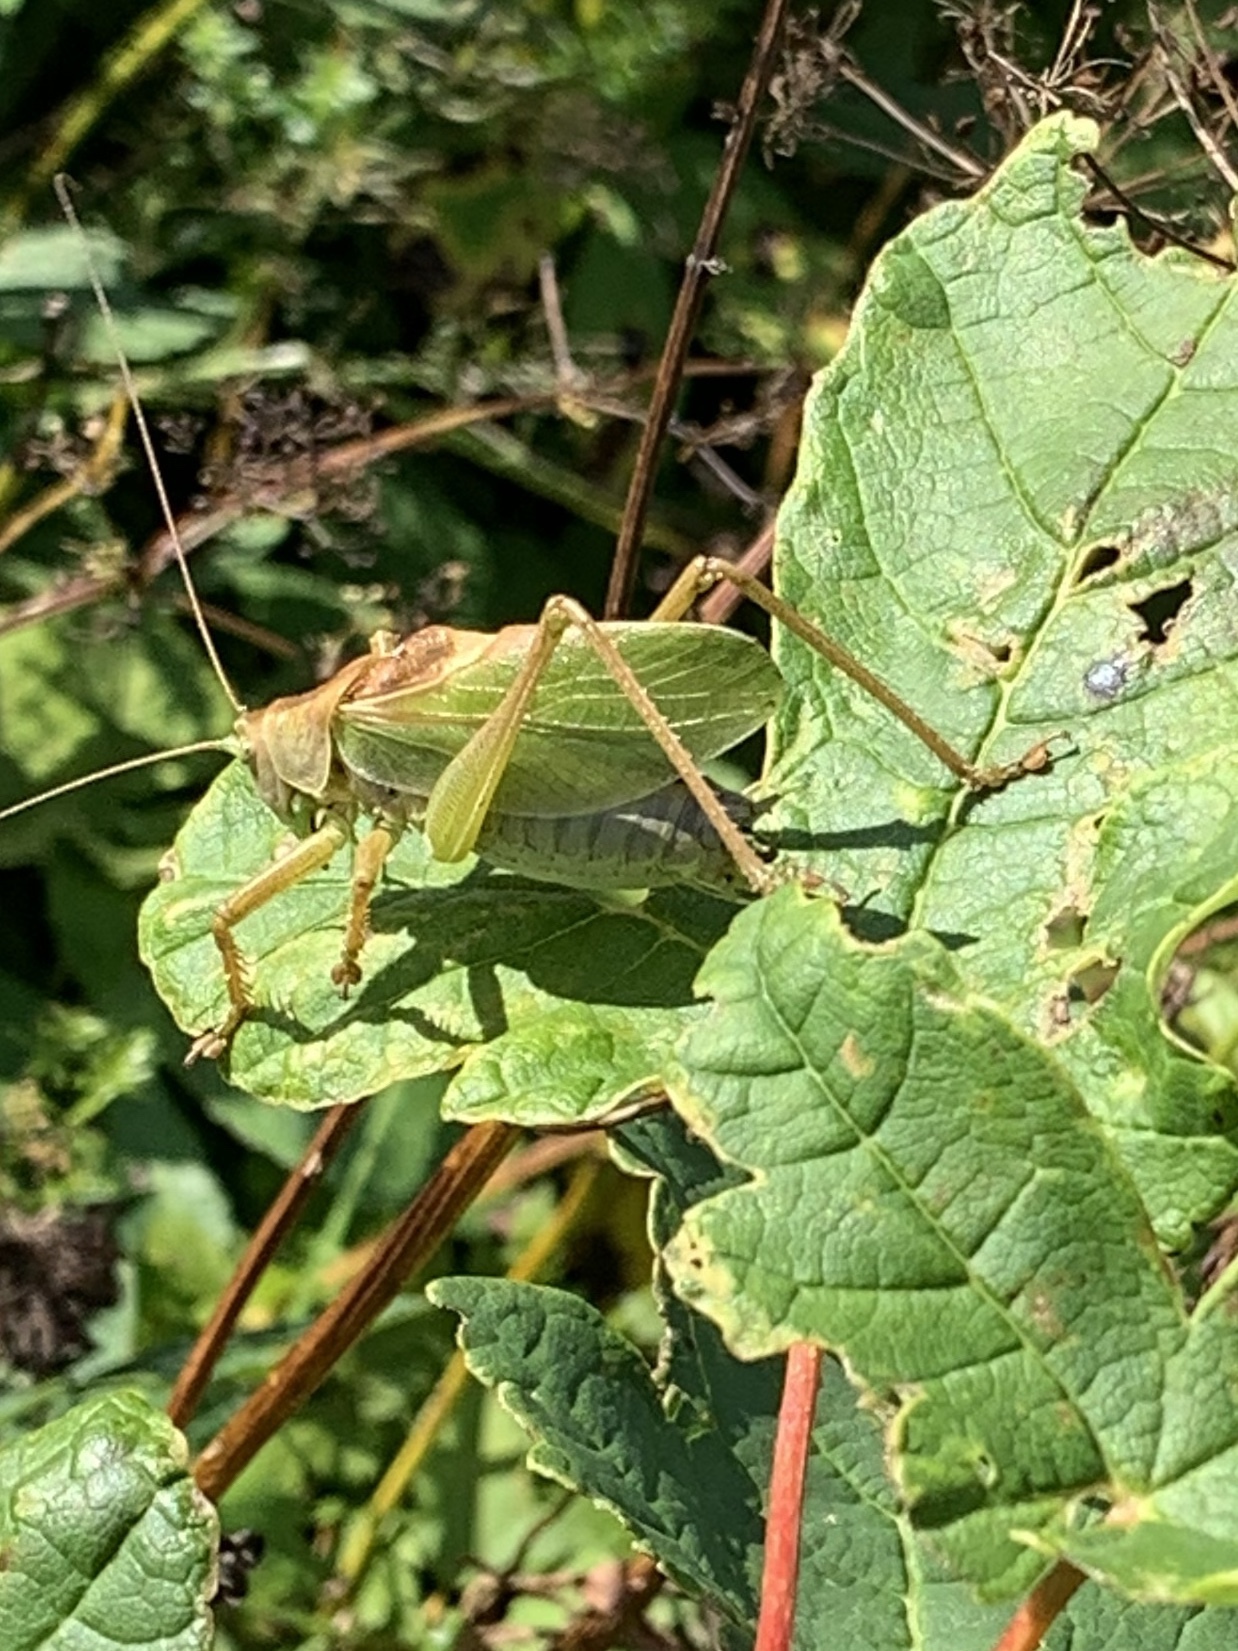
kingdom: Animalia
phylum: Arthropoda
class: Insecta
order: Orthoptera
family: Tettigoniidae
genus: Tettigonia
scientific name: Tettigonia cantans
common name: Upland green bush-cricket
